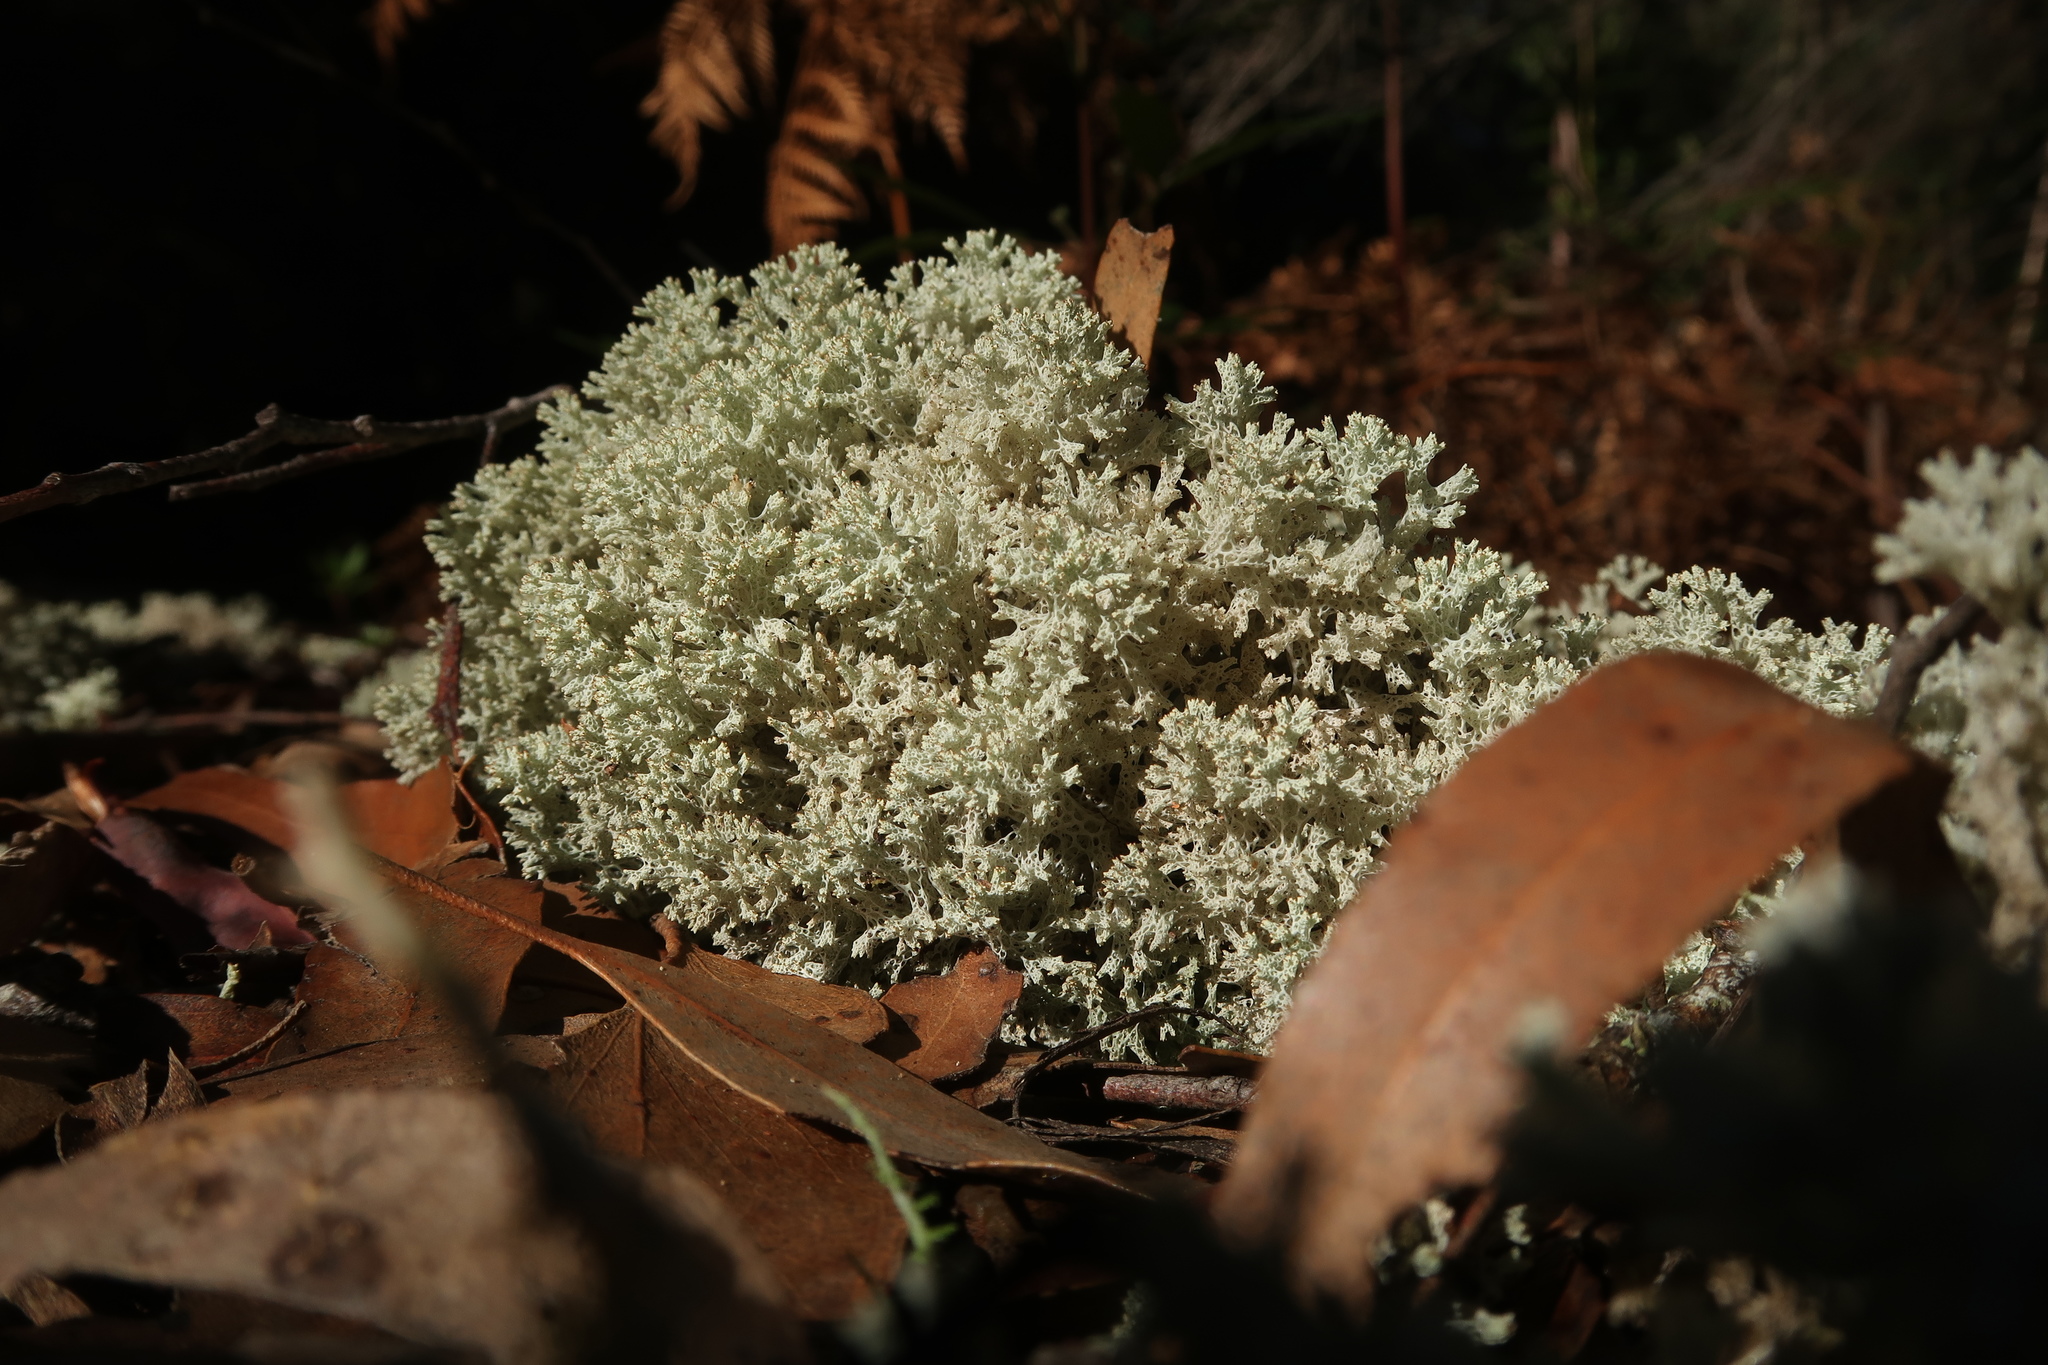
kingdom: Fungi
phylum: Ascomycota
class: Lecanoromycetes
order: Lecanorales
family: Cladoniaceae
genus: Pulchrocladia
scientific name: Pulchrocladia retipora
